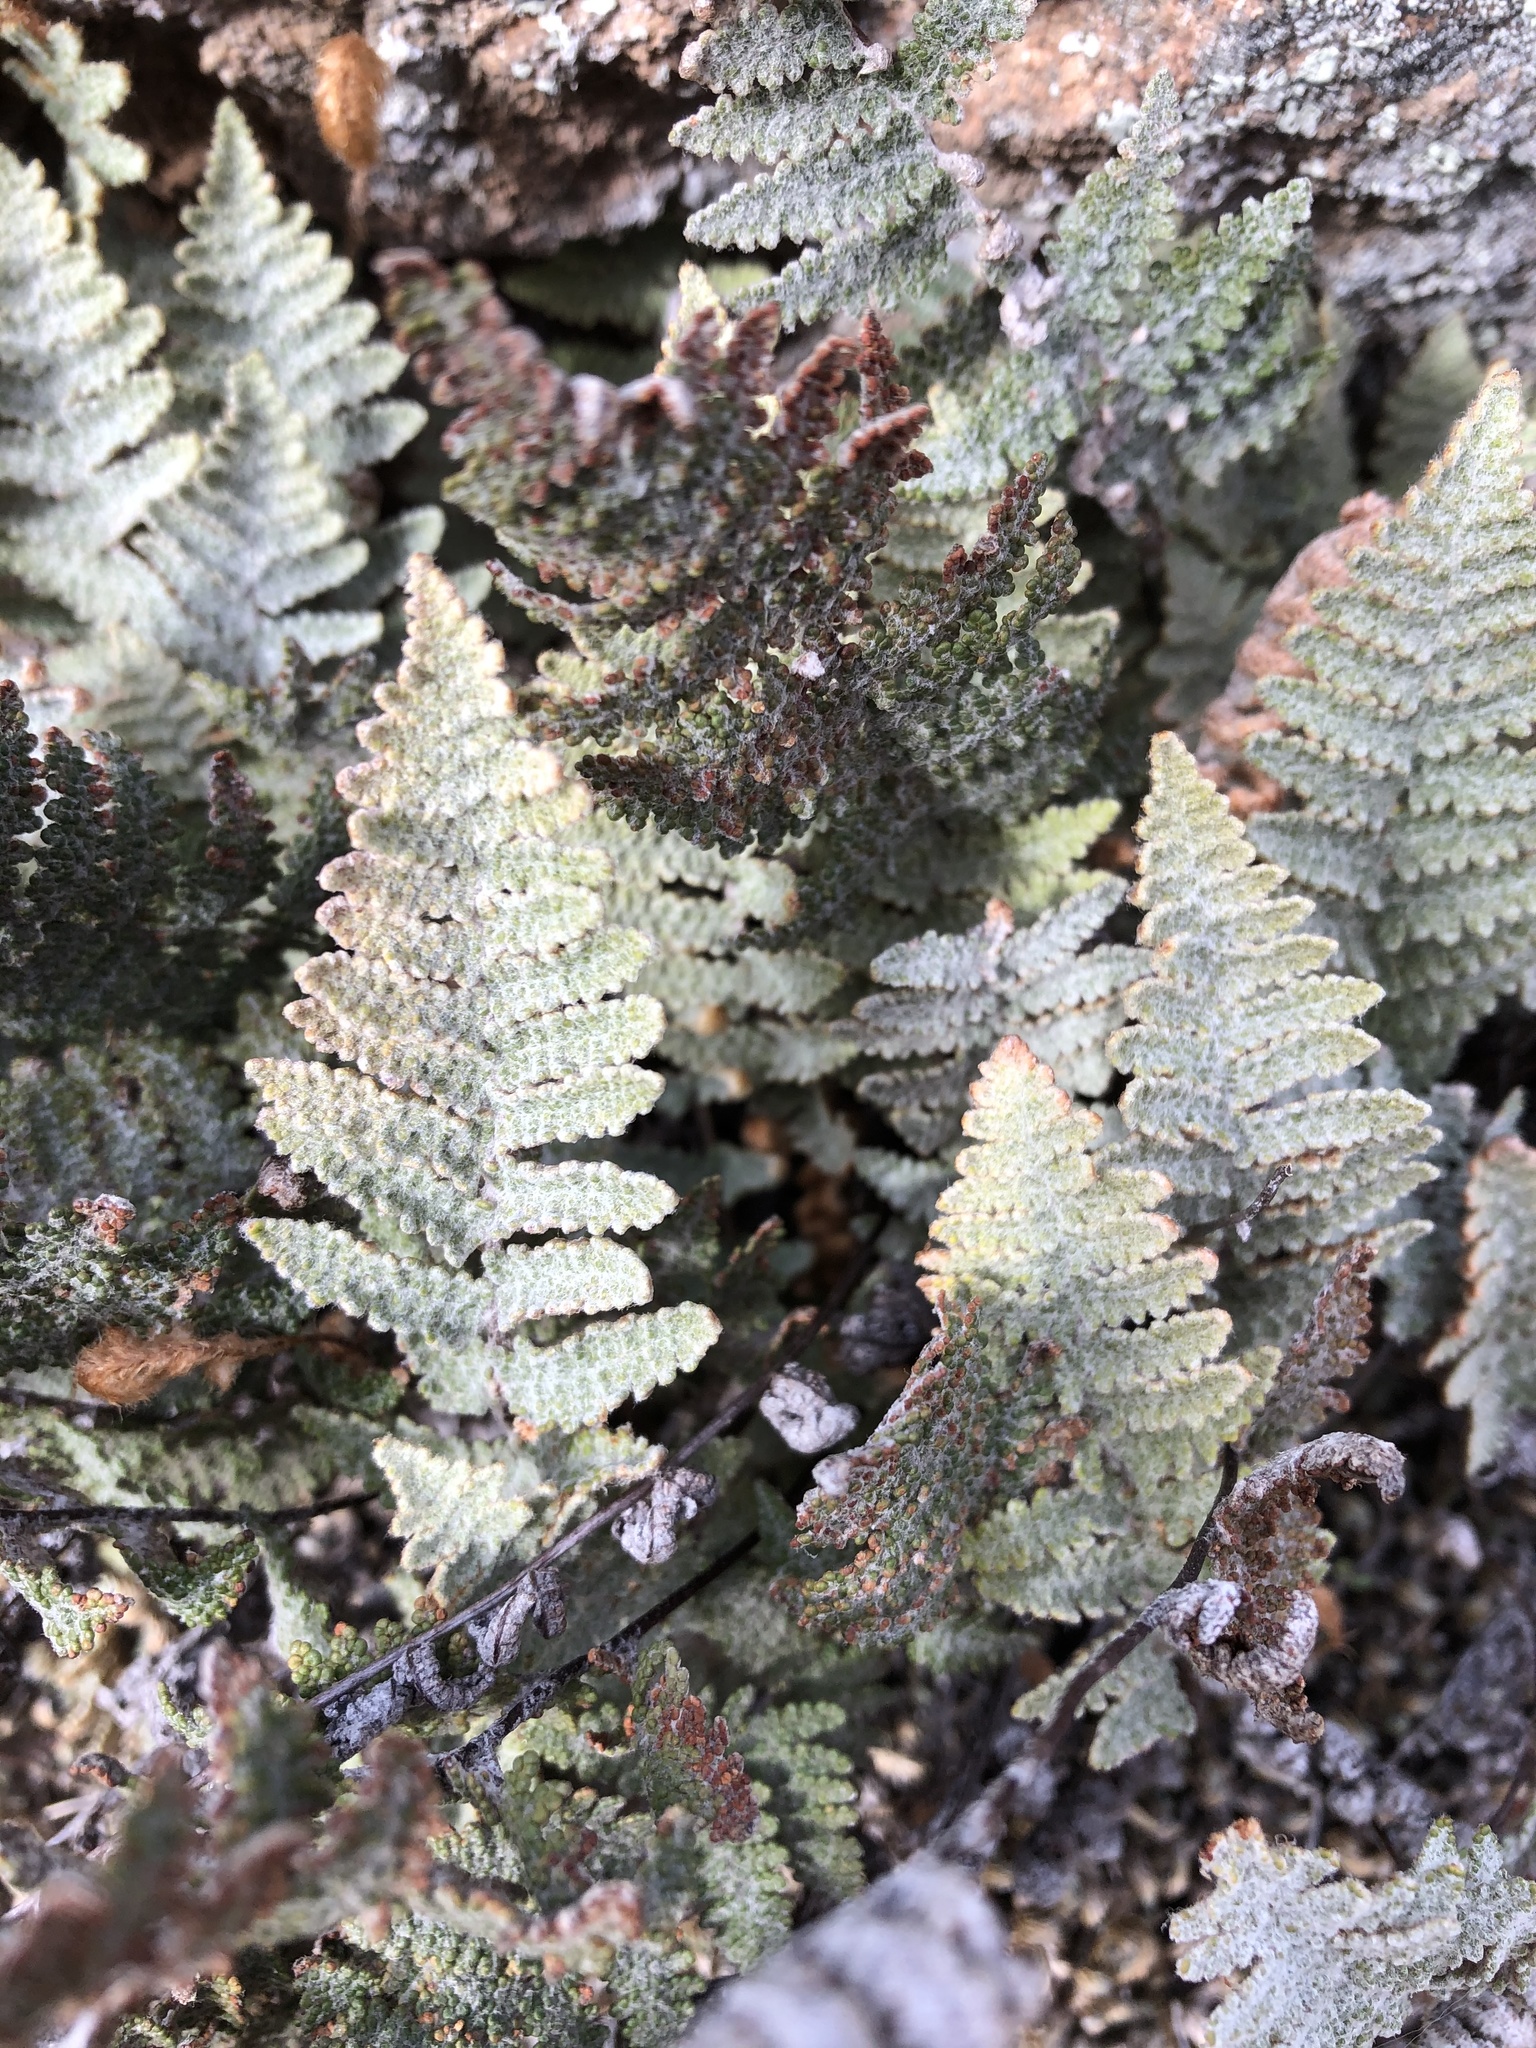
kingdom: Plantae
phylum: Tracheophyta
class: Polypodiopsida
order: Polypodiales
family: Pteridaceae
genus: Myriopteris
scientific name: Myriopteris lindheimeri
